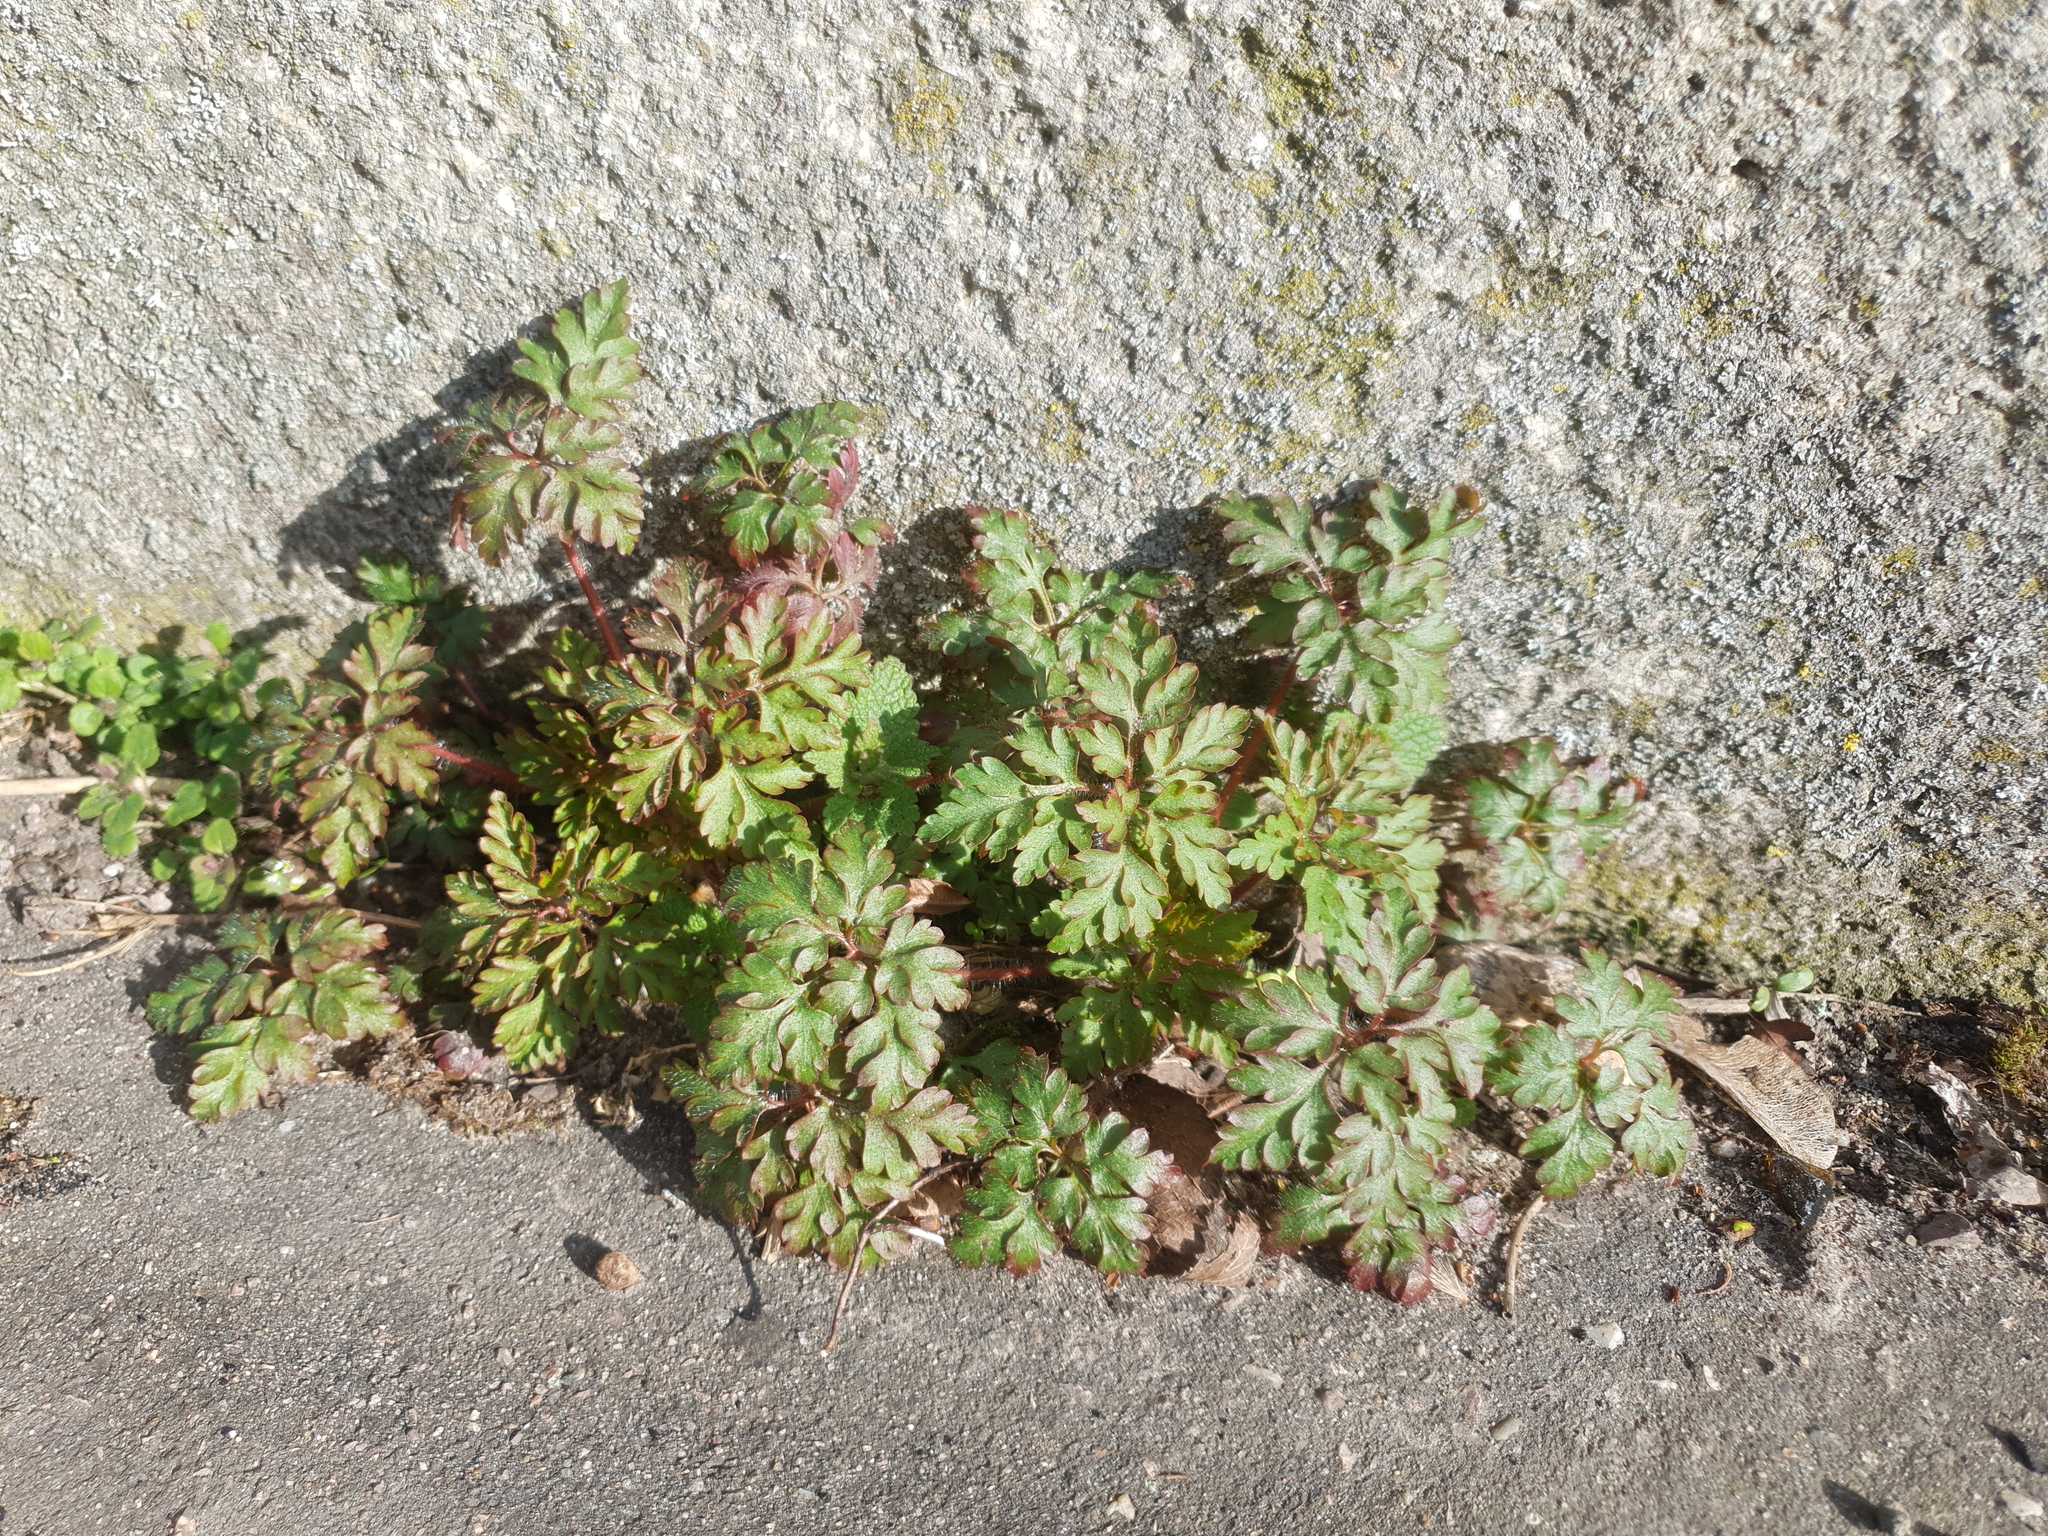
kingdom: Plantae
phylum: Tracheophyta
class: Magnoliopsida
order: Geraniales
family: Geraniaceae
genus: Geranium
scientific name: Geranium robertianum
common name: Herb-robert
